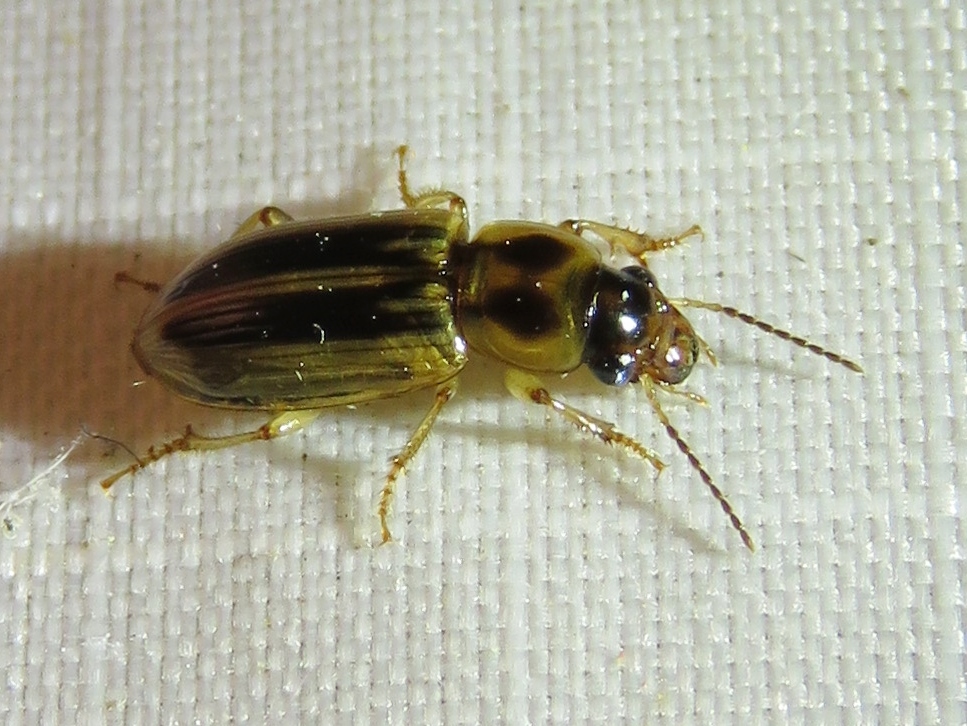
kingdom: Animalia
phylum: Arthropoda
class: Insecta
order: Coleoptera
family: Carabidae
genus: Stenolophus
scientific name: Stenolophus binotatus
